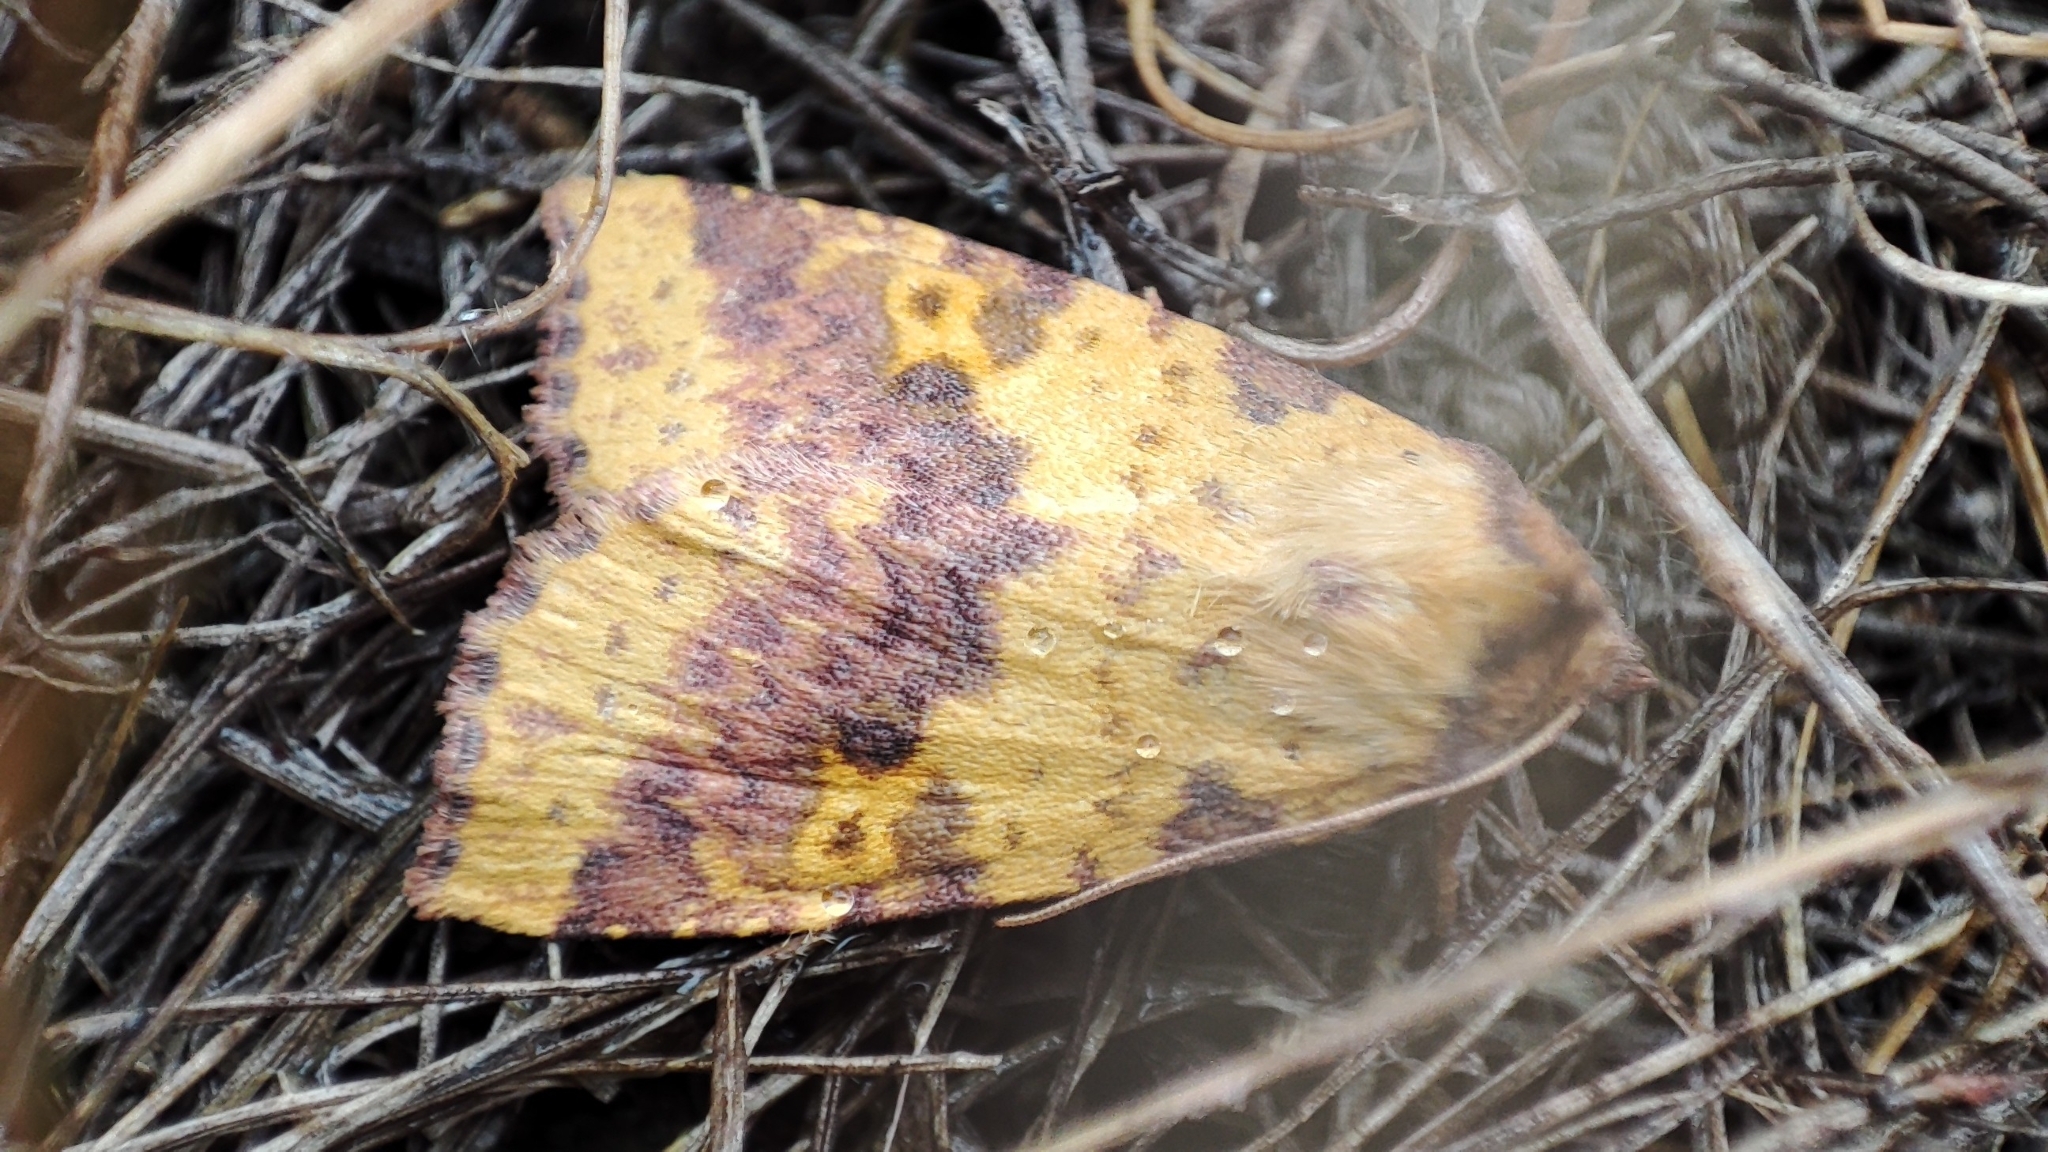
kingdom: Animalia
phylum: Arthropoda
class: Insecta
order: Lepidoptera
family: Noctuidae
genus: Xanthia
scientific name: Xanthia togata
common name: Pink-barred sallow
